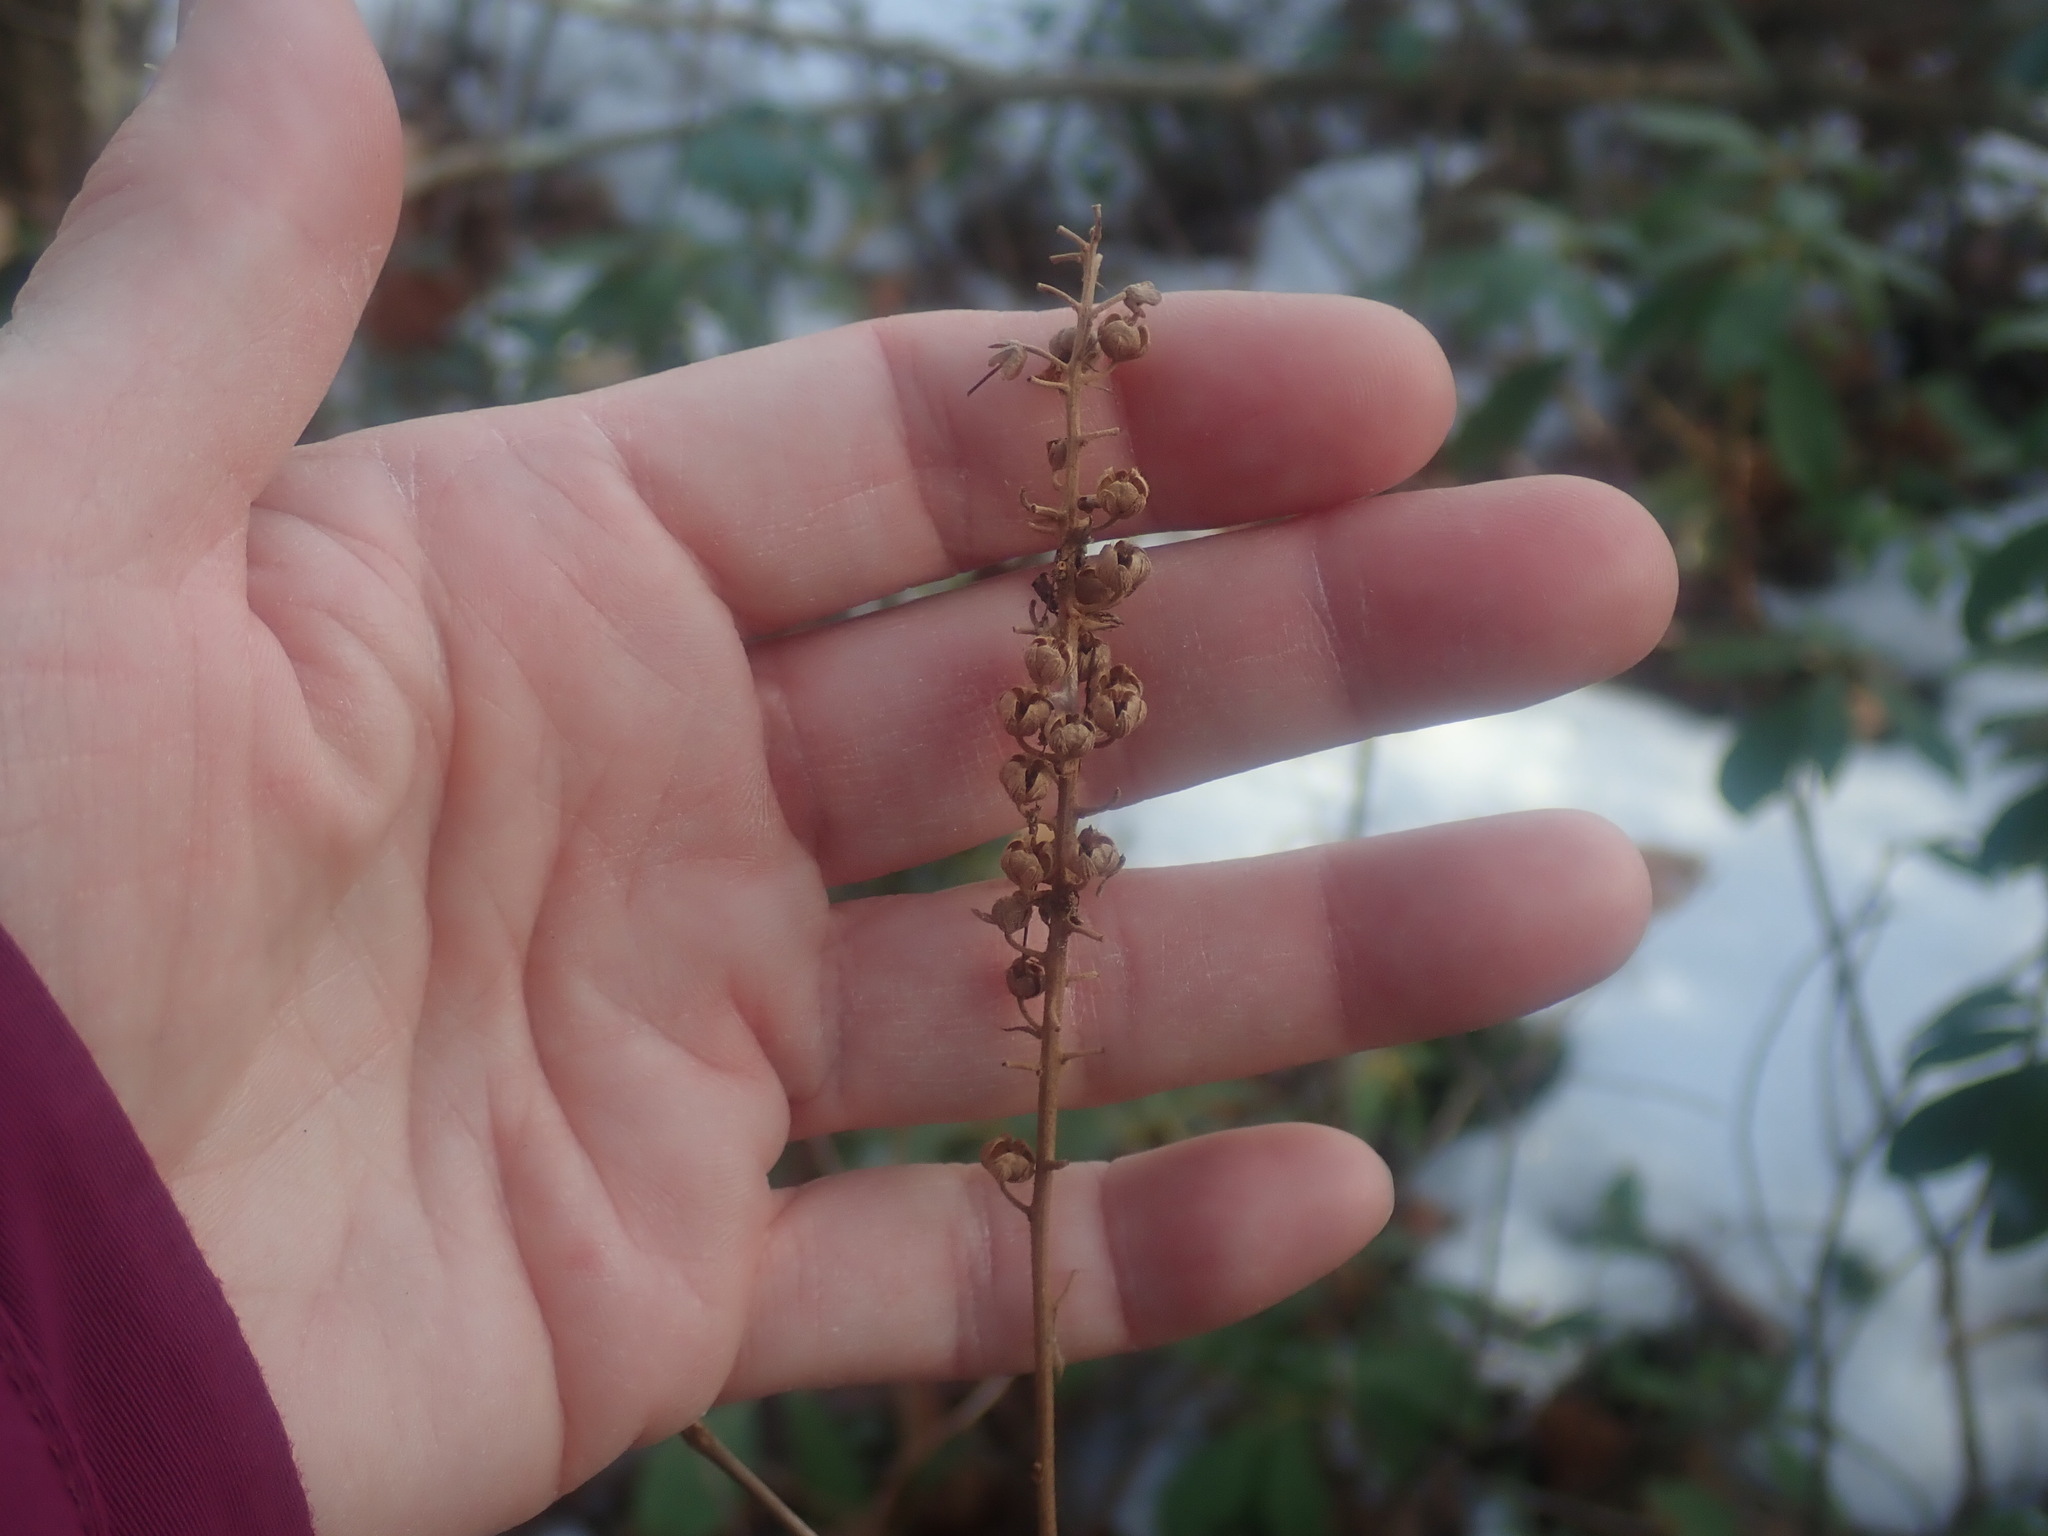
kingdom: Plantae
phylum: Tracheophyta
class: Magnoliopsida
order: Ericales
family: Clethraceae
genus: Clethra
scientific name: Clethra alnifolia
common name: Sweet pepperbush
